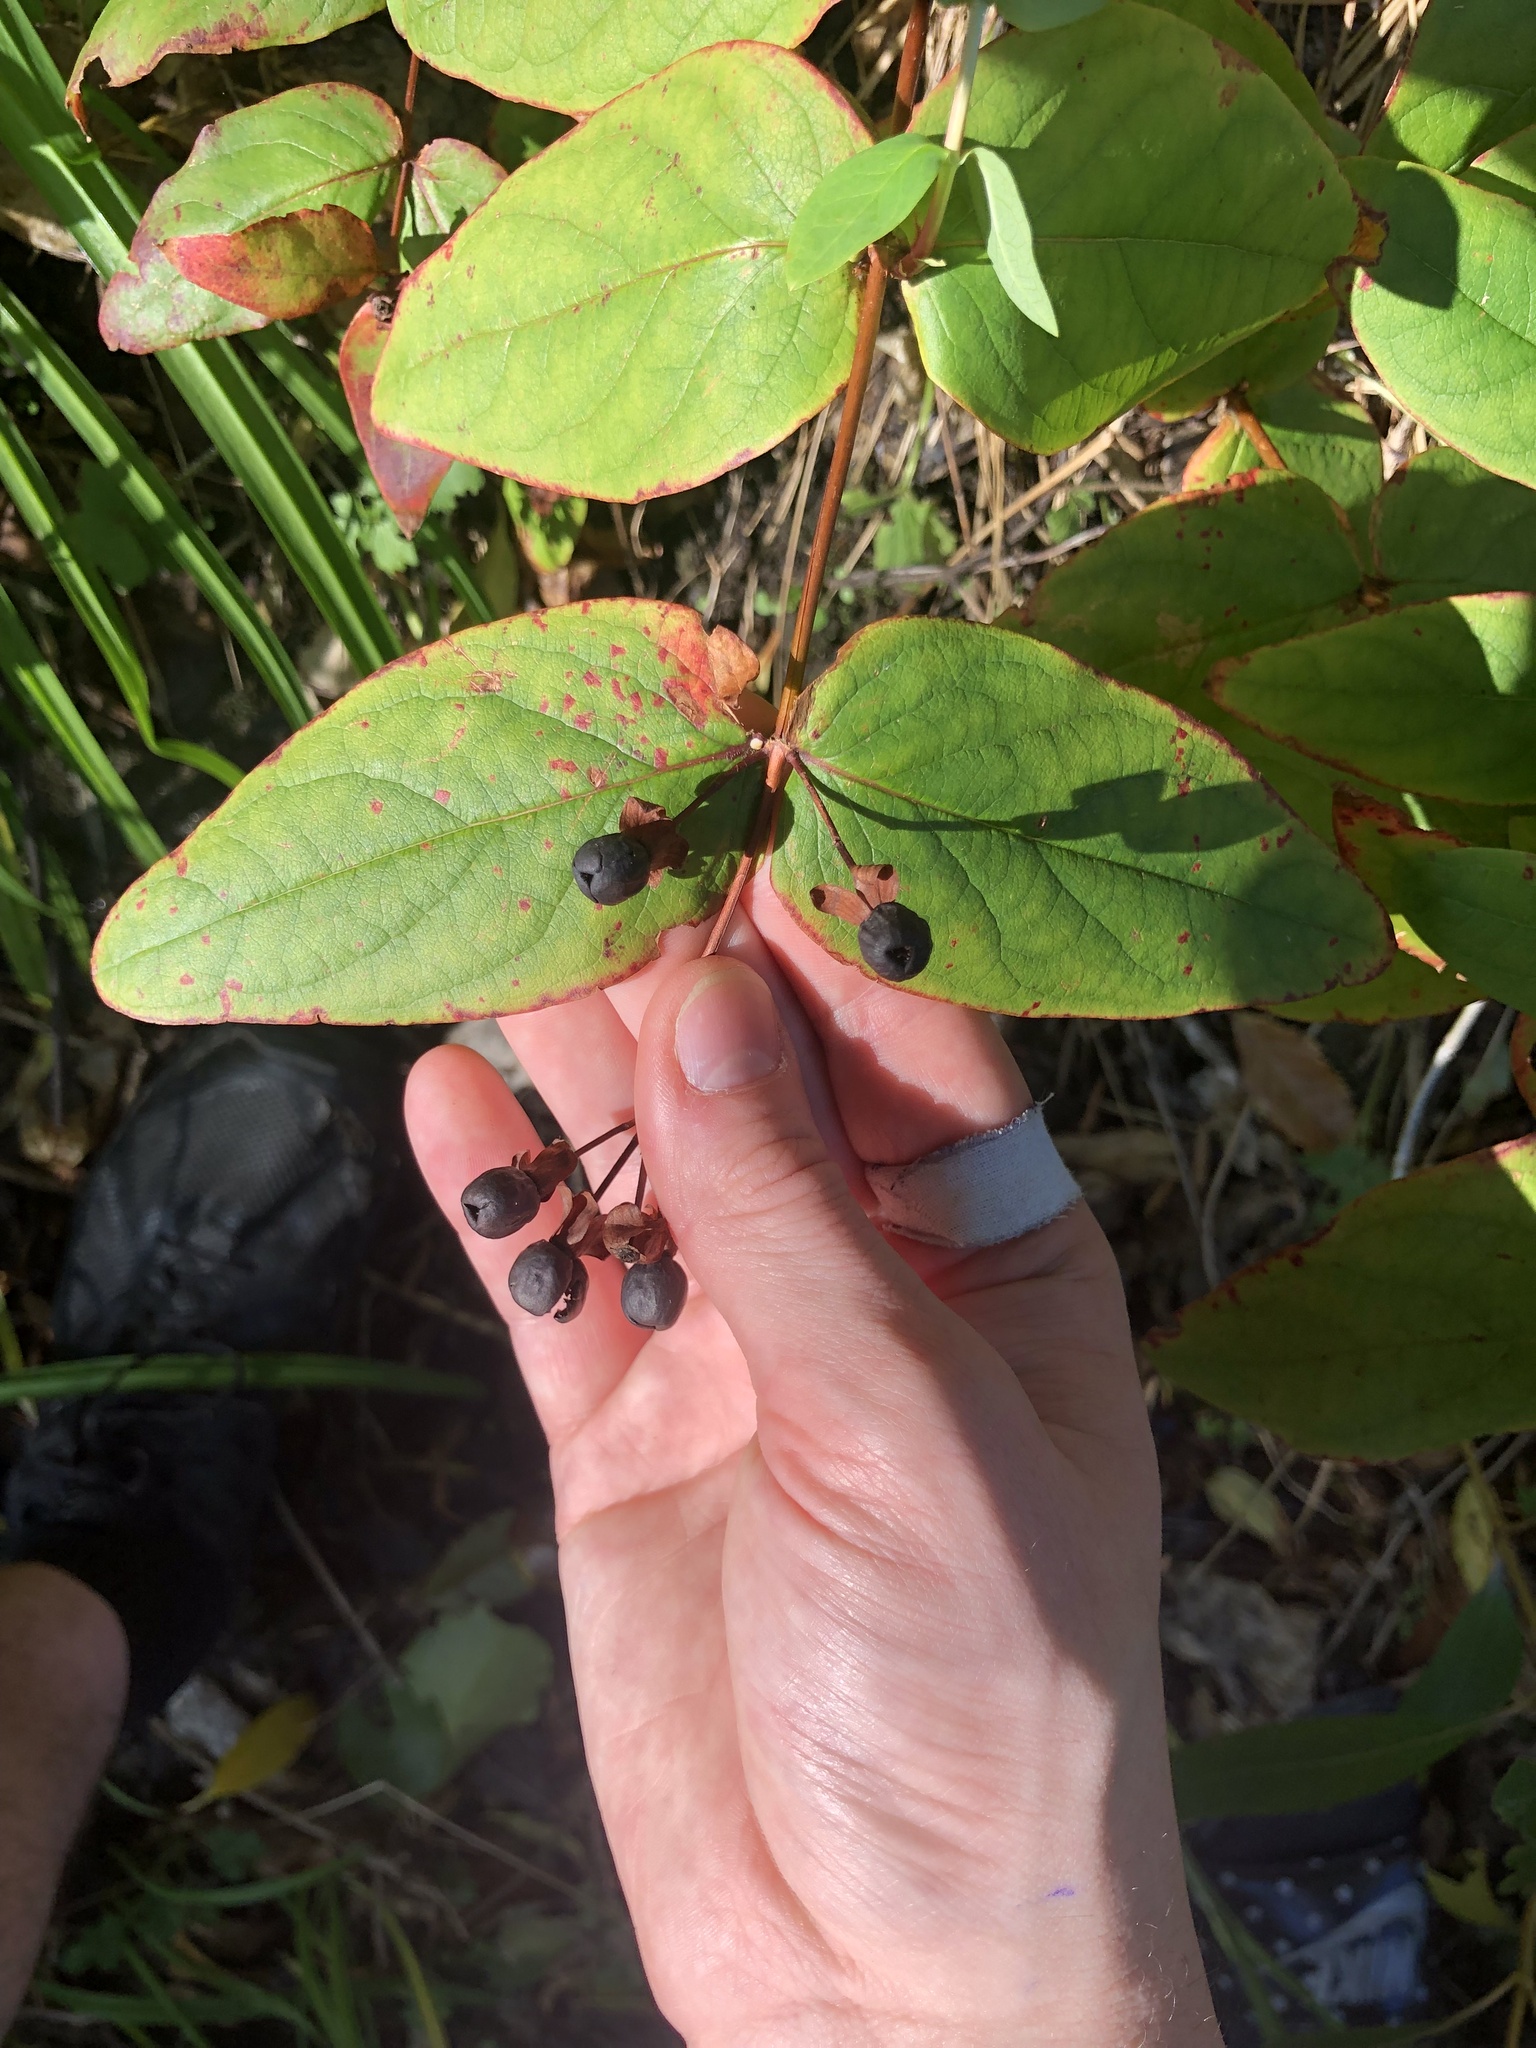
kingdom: Plantae
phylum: Tracheophyta
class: Magnoliopsida
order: Malpighiales
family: Hypericaceae
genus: Hypericum
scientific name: Hypericum androsaemum
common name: Sweet-amber
